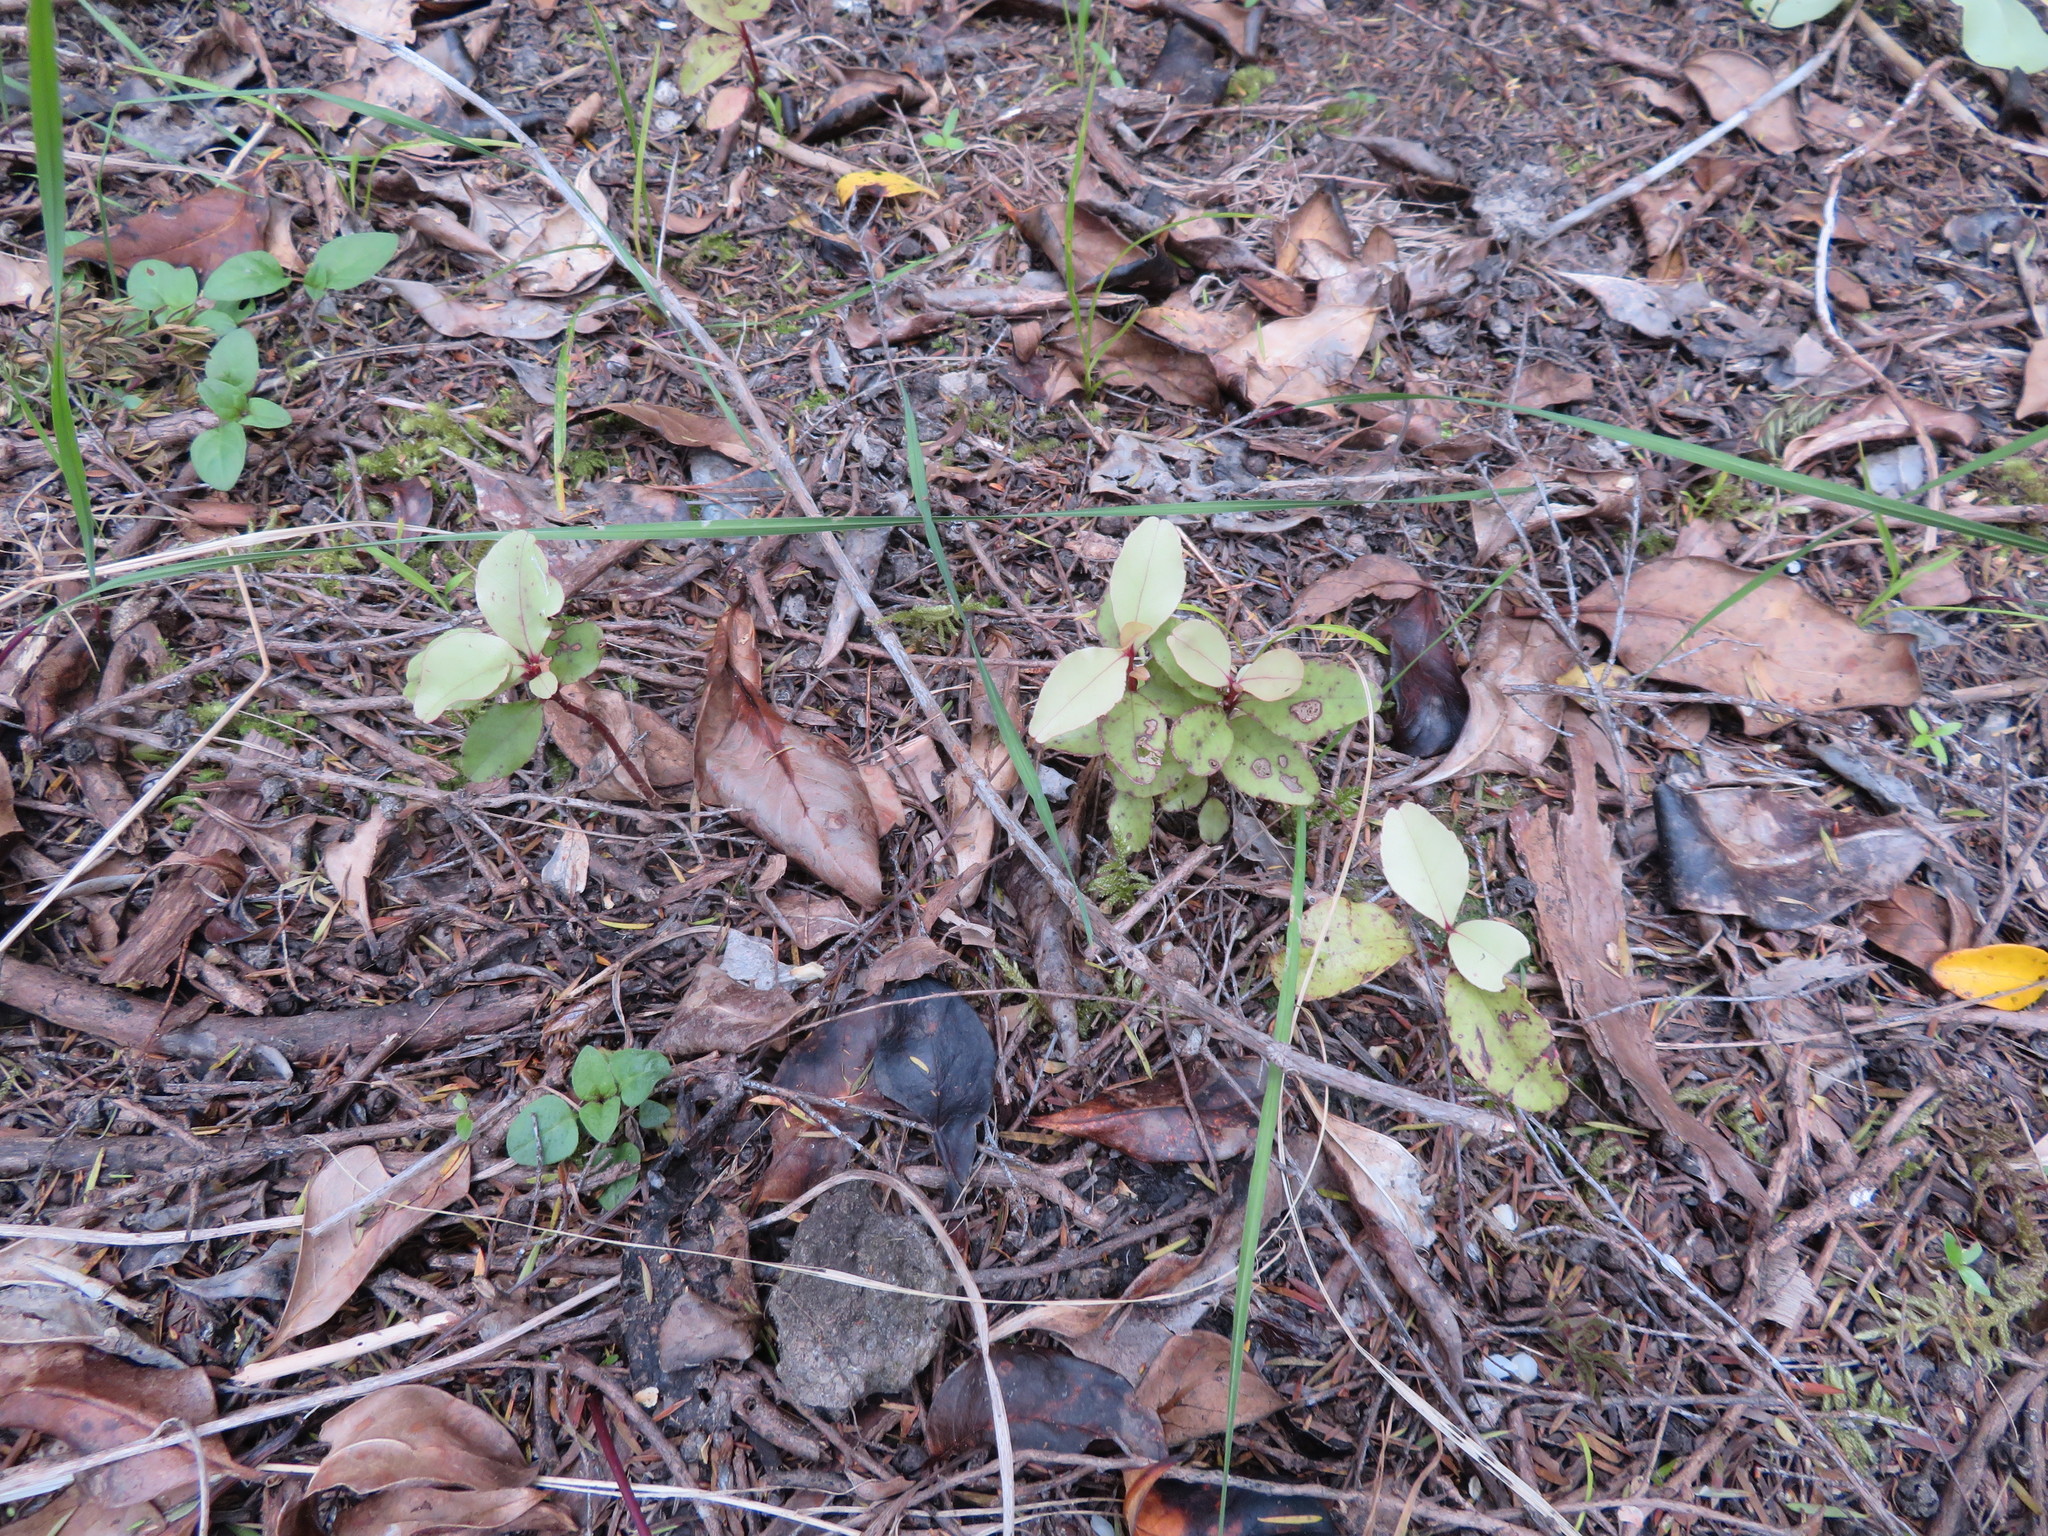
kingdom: Plantae
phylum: Tracheophyta
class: Magnoliopsida
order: Ericales
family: Primulaceae
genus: Myrsine
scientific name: Myrsine australis
